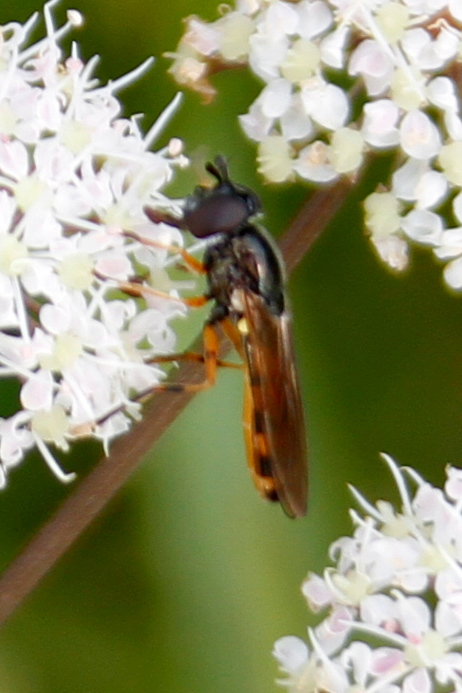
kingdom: Animalia
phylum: Arthropoda
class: Insecta
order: Diptera
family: Syrphidae
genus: Pyrophaena
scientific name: Pyrophaena granditarsa
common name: Hornhand sedgesitter
